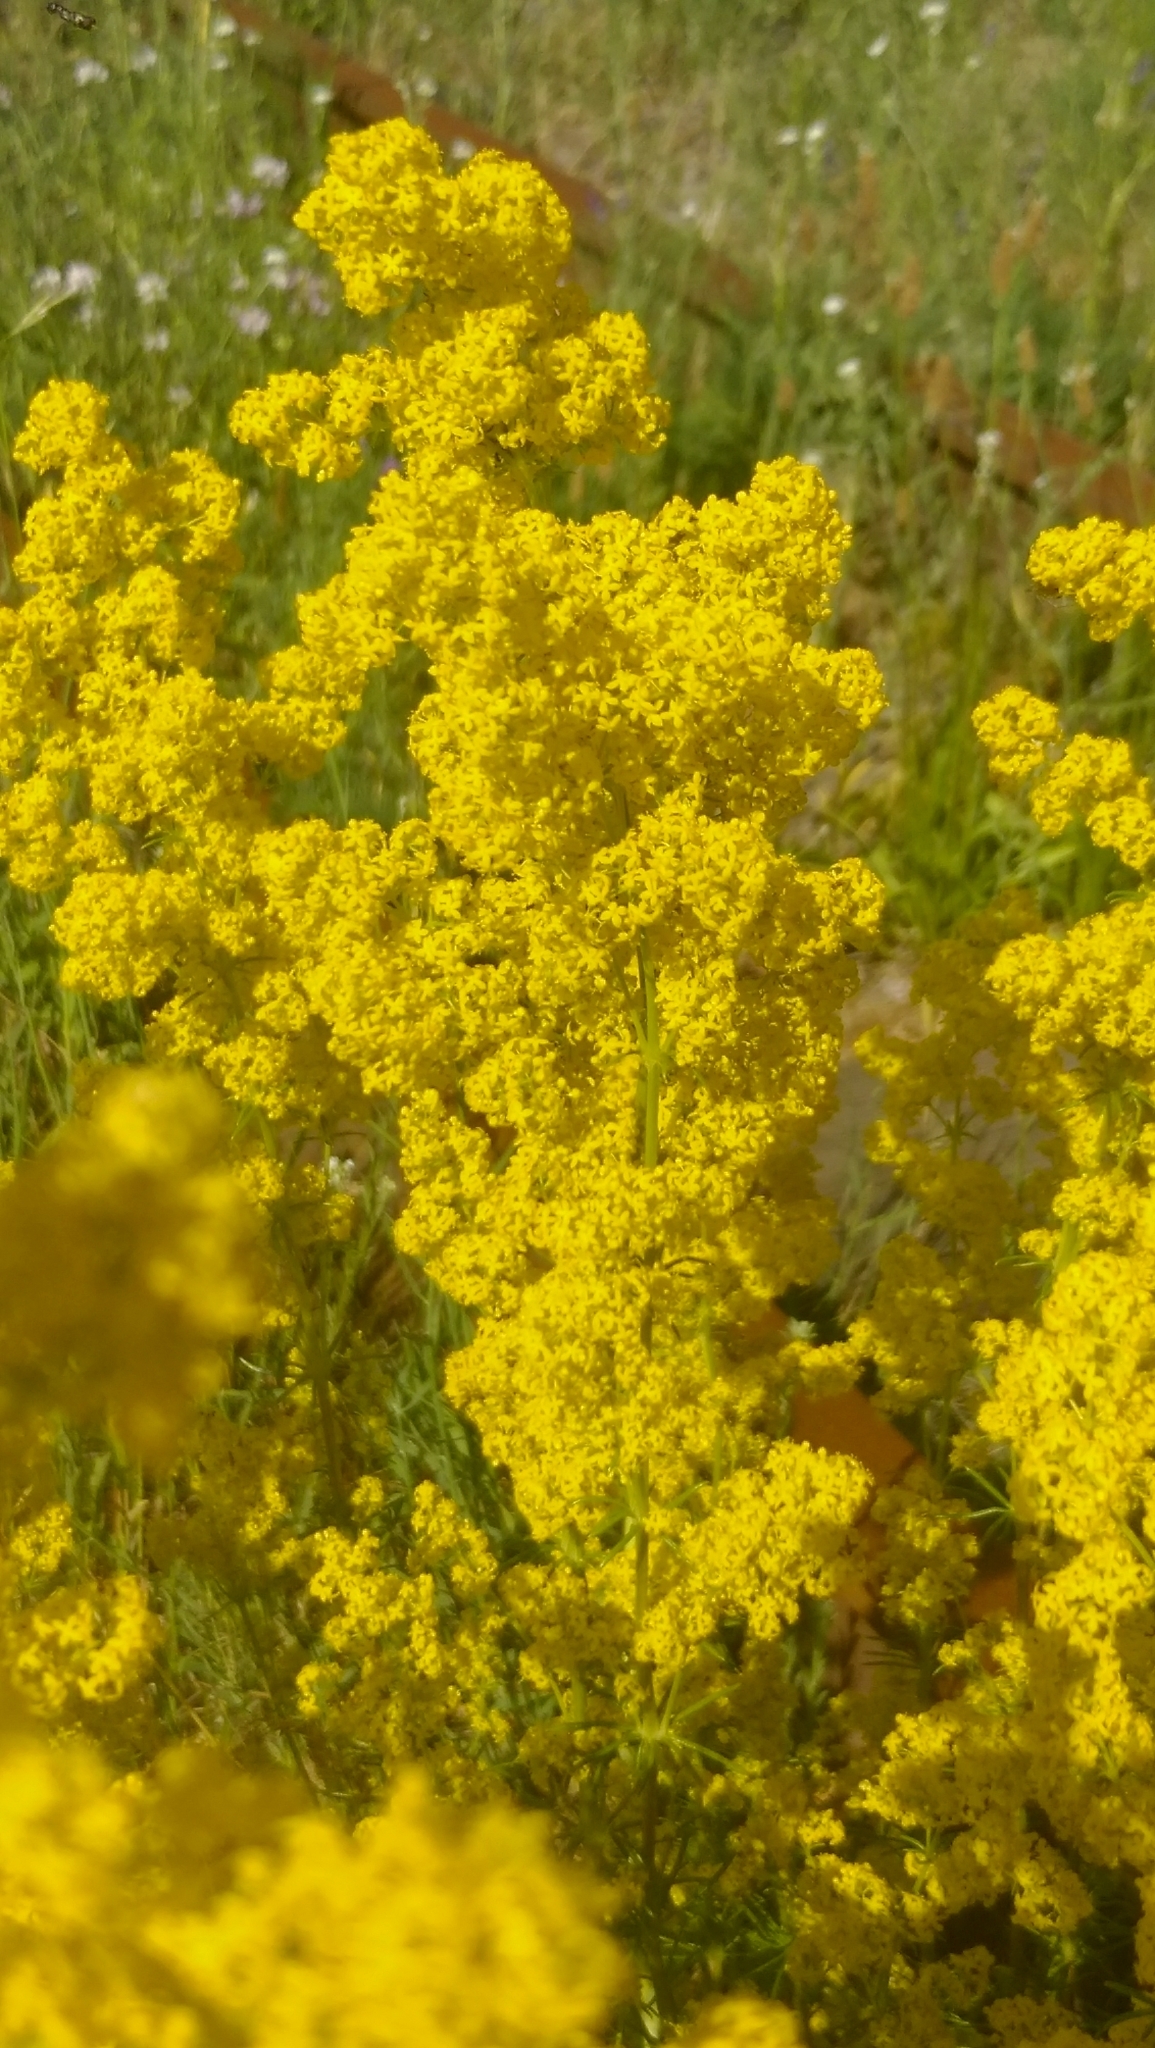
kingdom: Plantae
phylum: Tracheophyta
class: Magnoliopsida
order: Gentianales
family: Rubiaceae
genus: Galium
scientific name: Galium verum
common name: Lady's bedstraw
